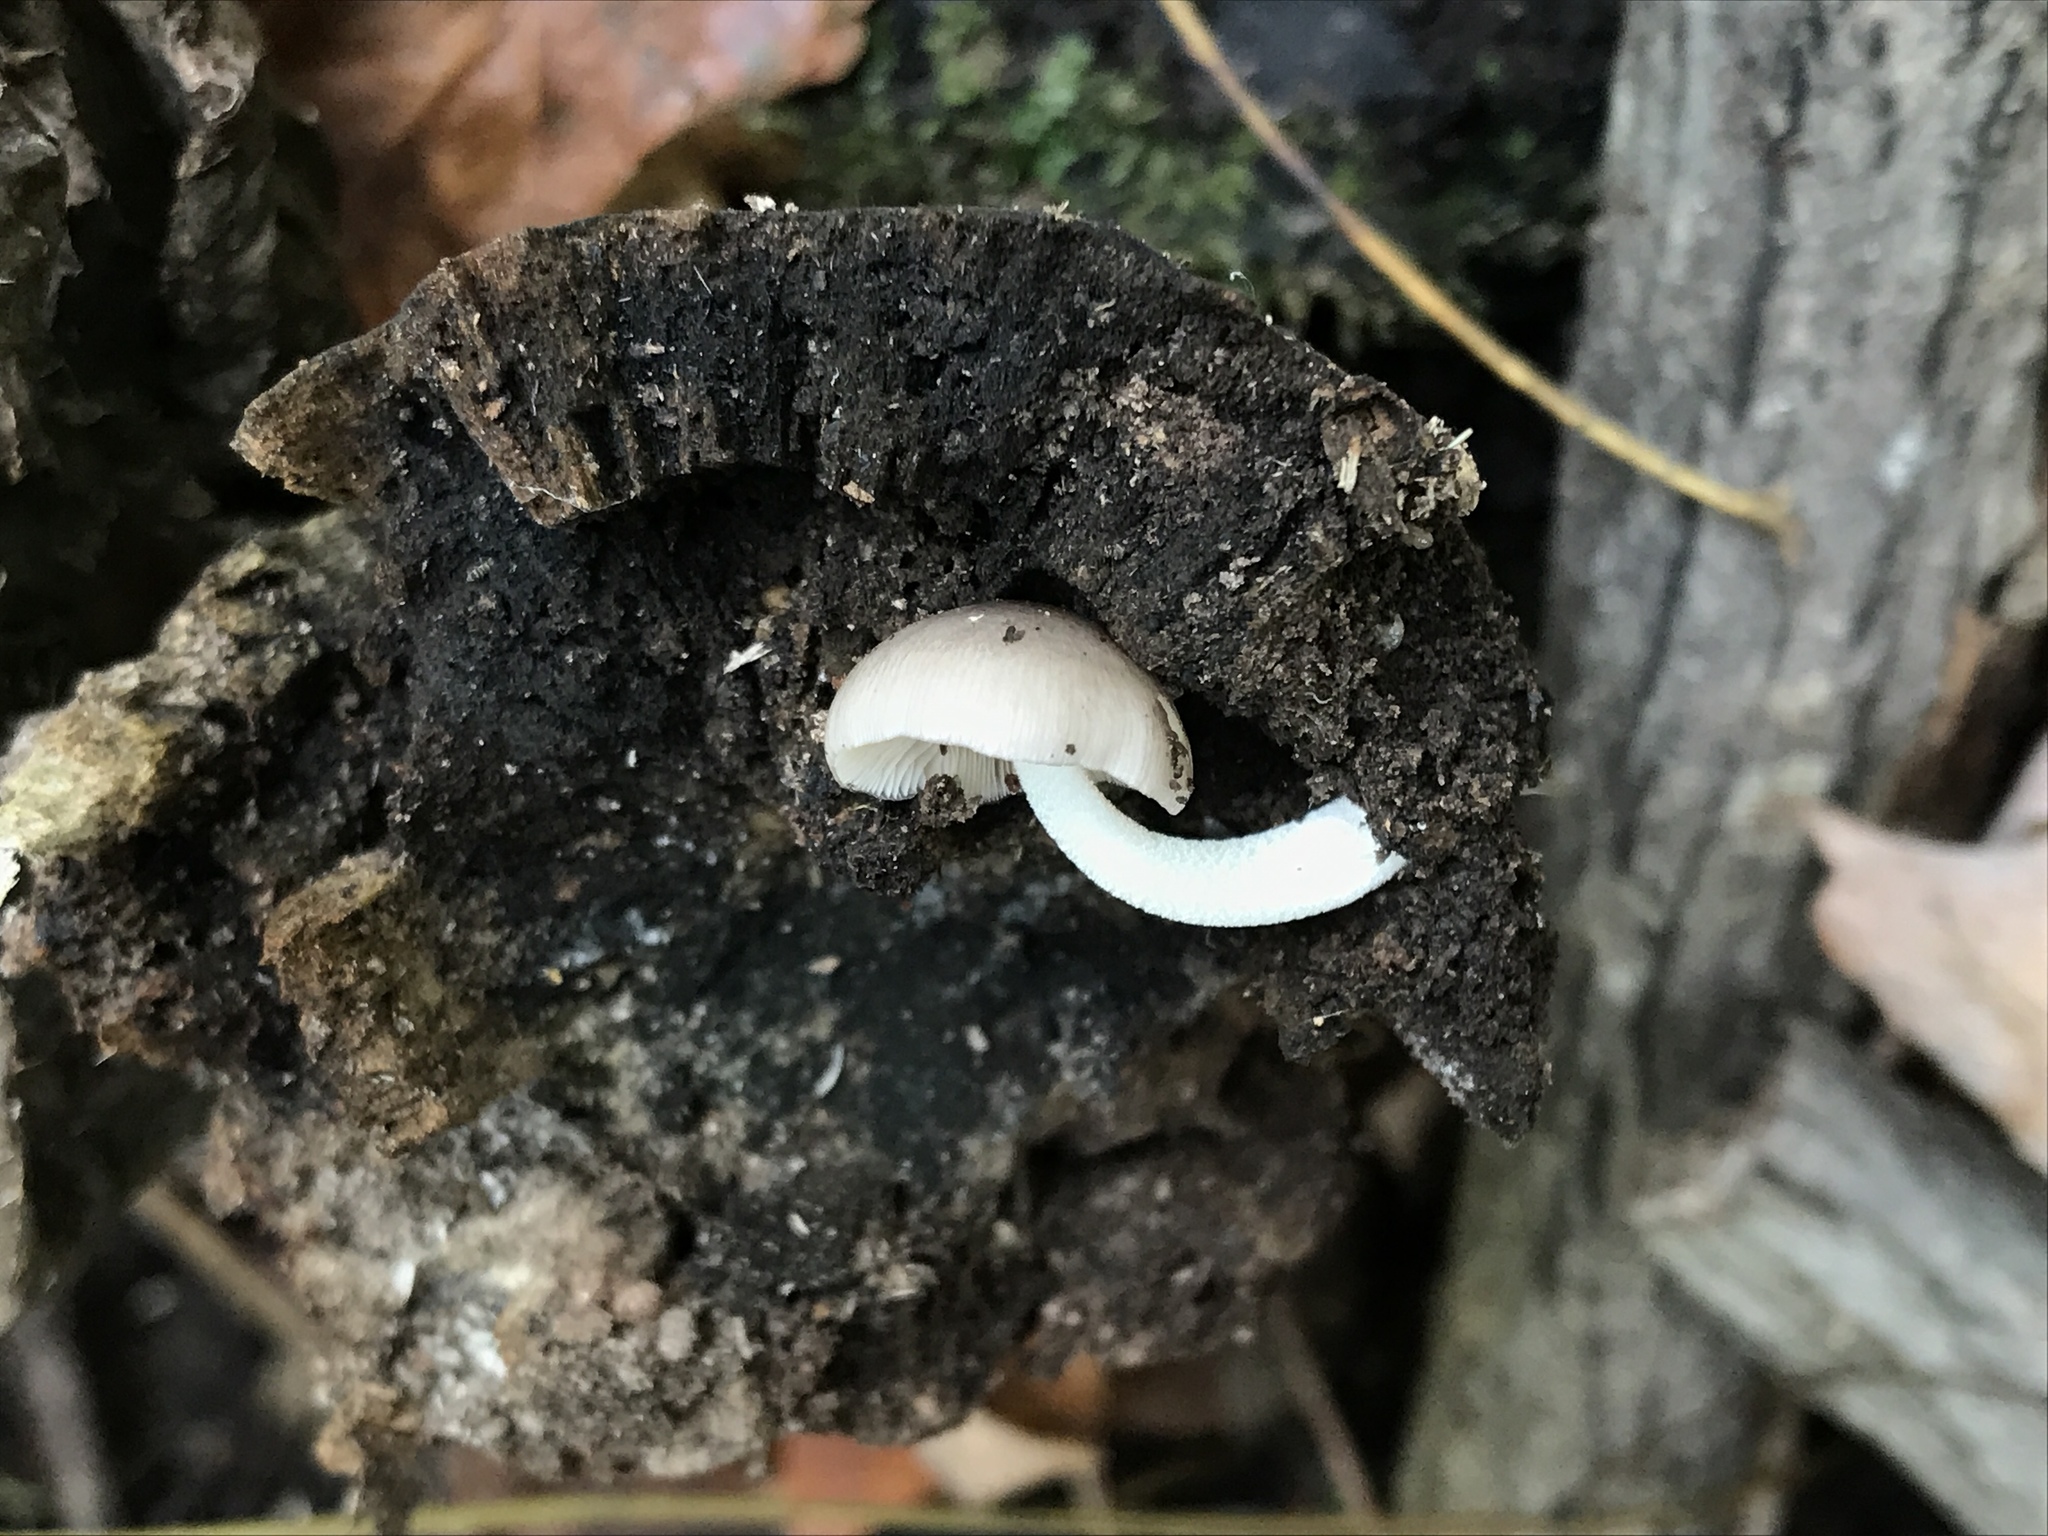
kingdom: Fungi
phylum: Basidiomycota
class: Agaricomycetes
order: Agaricales
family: Bolbitiaceae
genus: Bolbitius
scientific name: Bolbitius reticulatus
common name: Netted fieldcap
